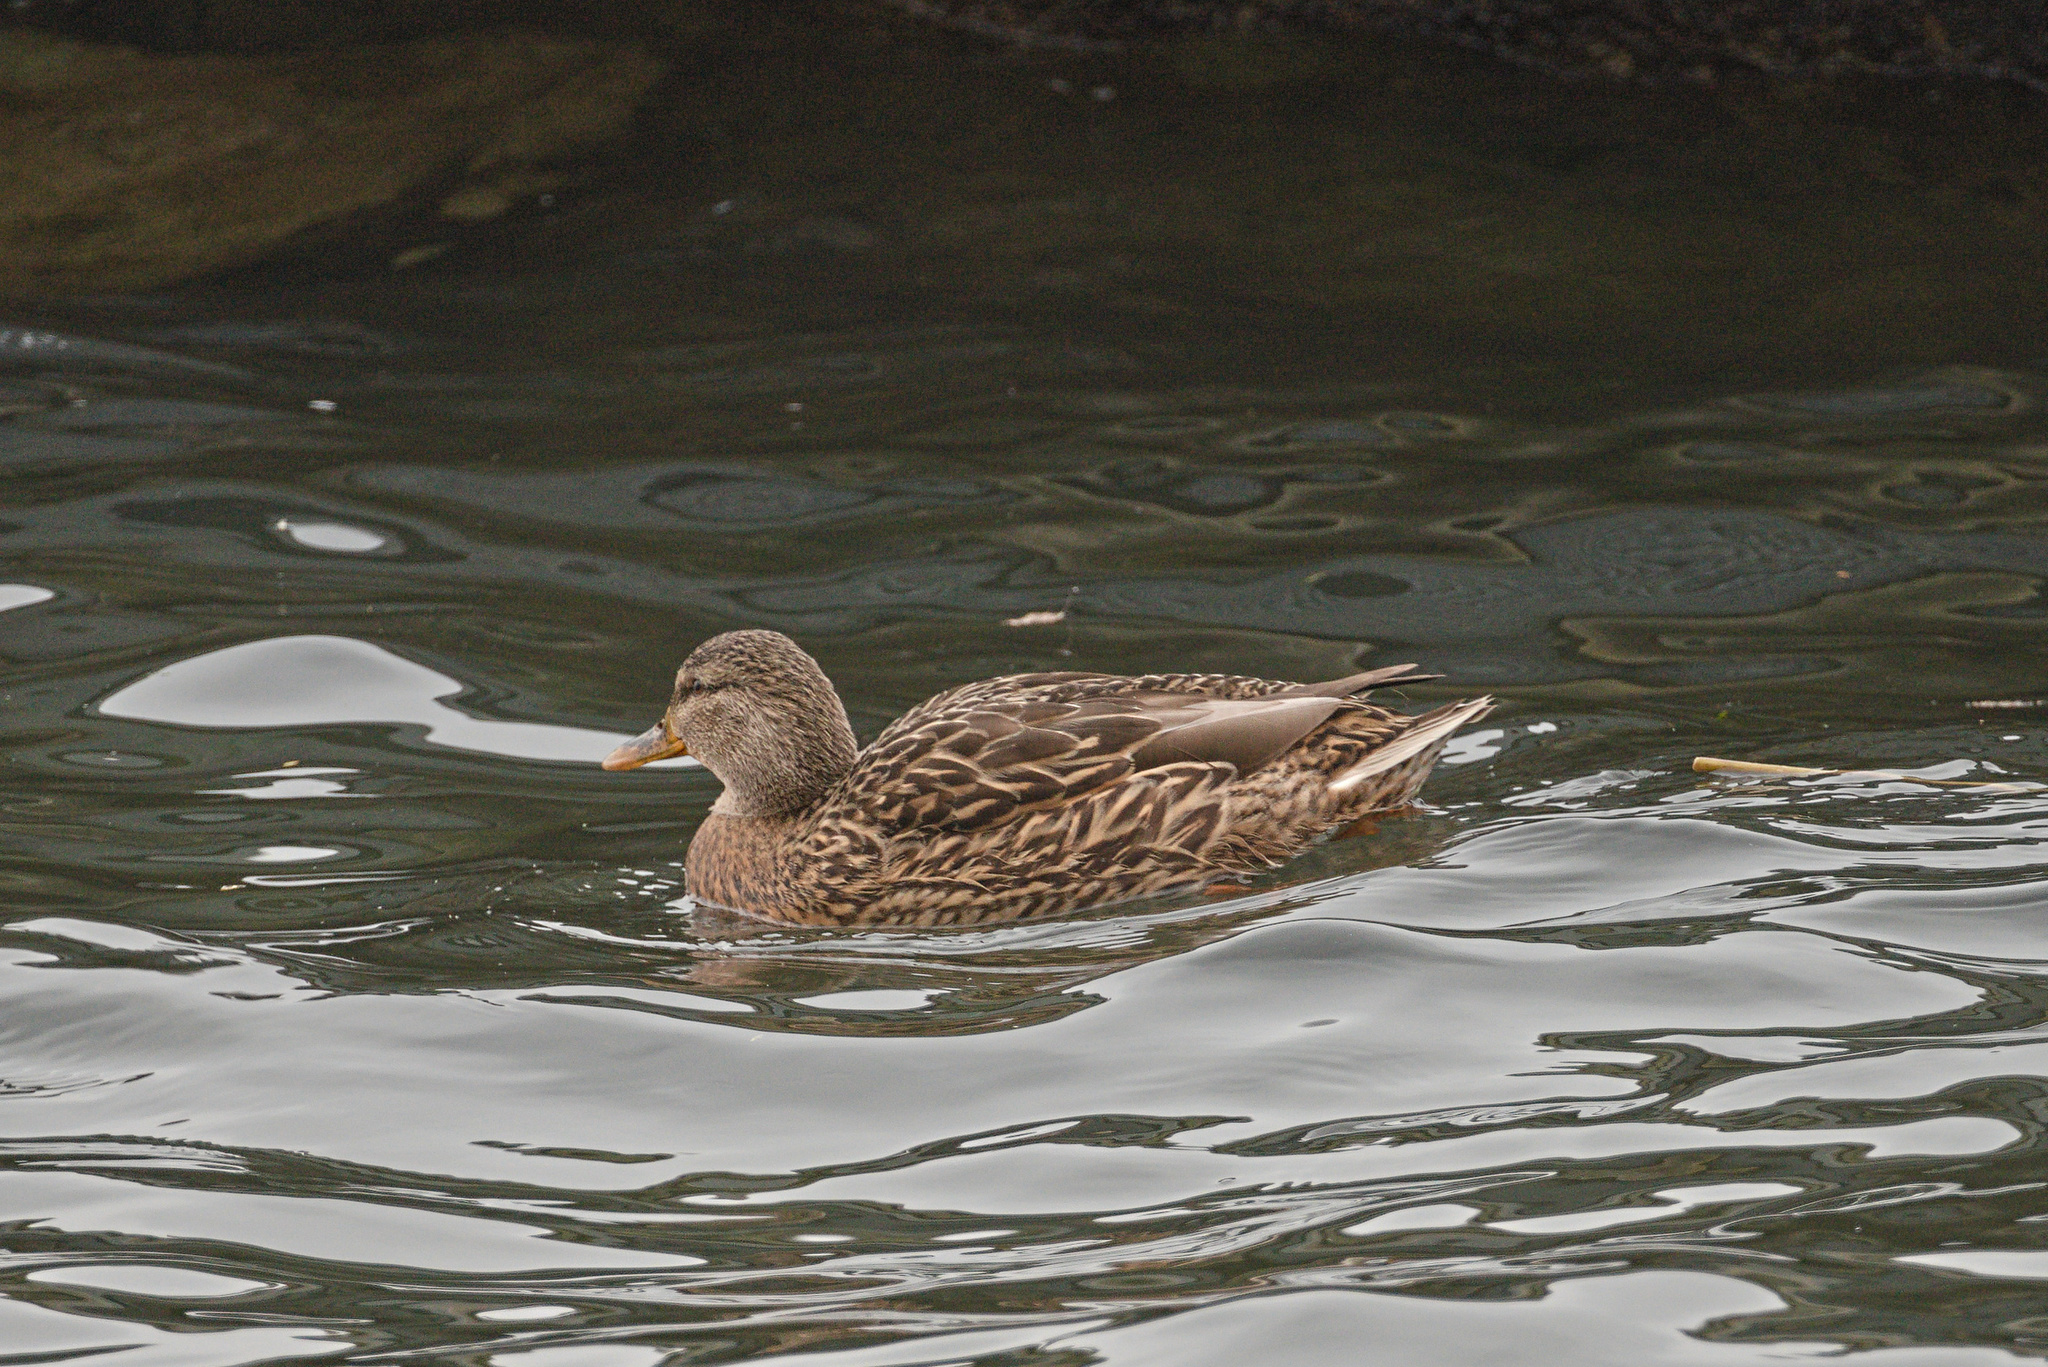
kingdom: Animalia
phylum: Chordata
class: Aves
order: Anseriformes
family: Anatidae
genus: Anas
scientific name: Anas platyrhynchos
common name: Mallard
